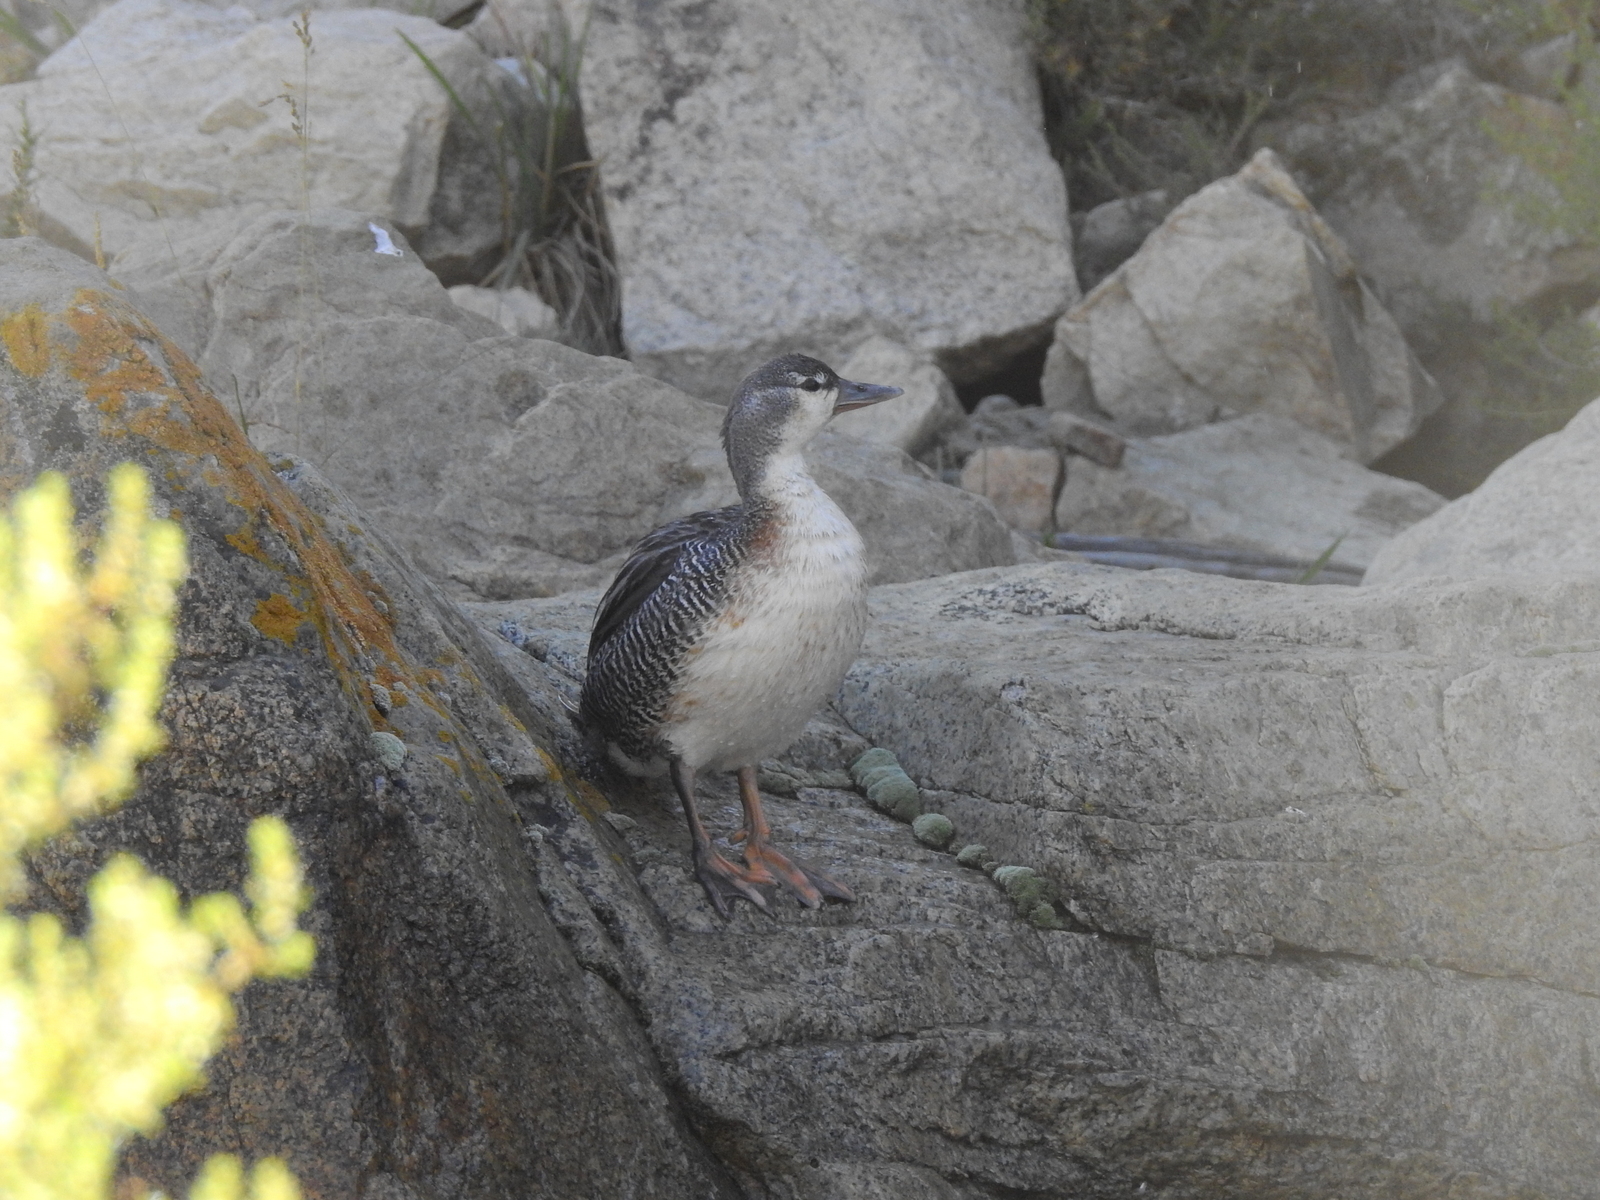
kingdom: Animalia
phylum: Chordata
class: Aves
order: Anseriformes
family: Anatidae
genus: Merganetta
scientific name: Merganetta armata
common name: Torrent duck
